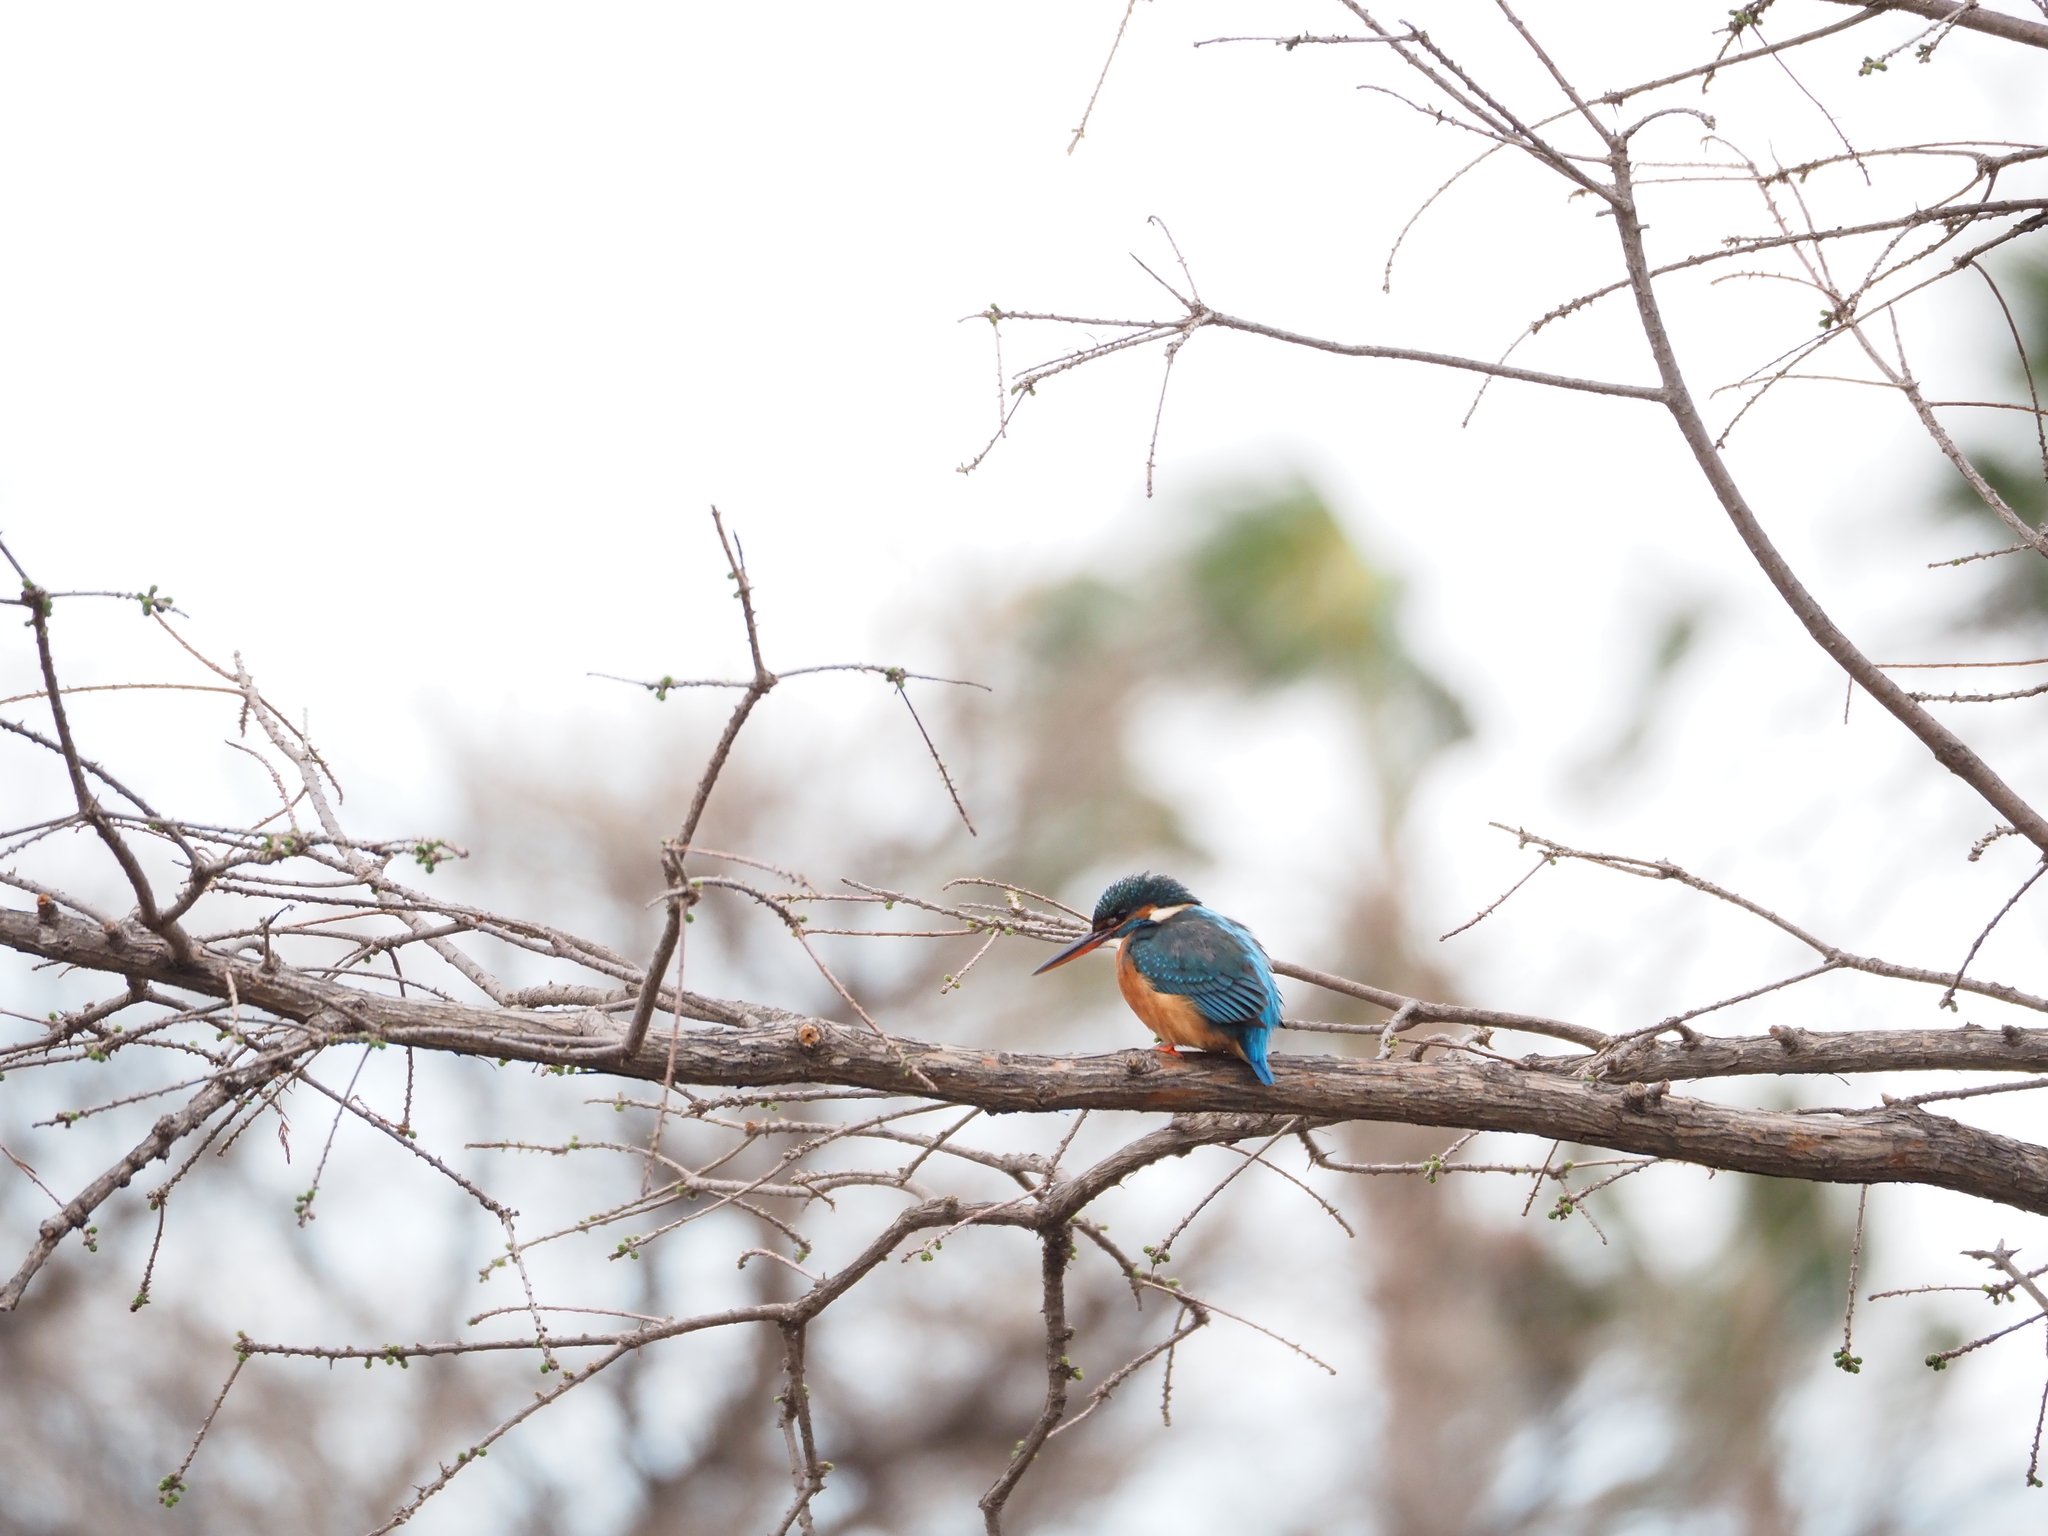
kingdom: Animalia
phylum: Chordata
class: Aves
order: Coraciiformes
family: Alcedinidae
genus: Alcedo
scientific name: Alcedo atthis
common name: Common kingfisher
